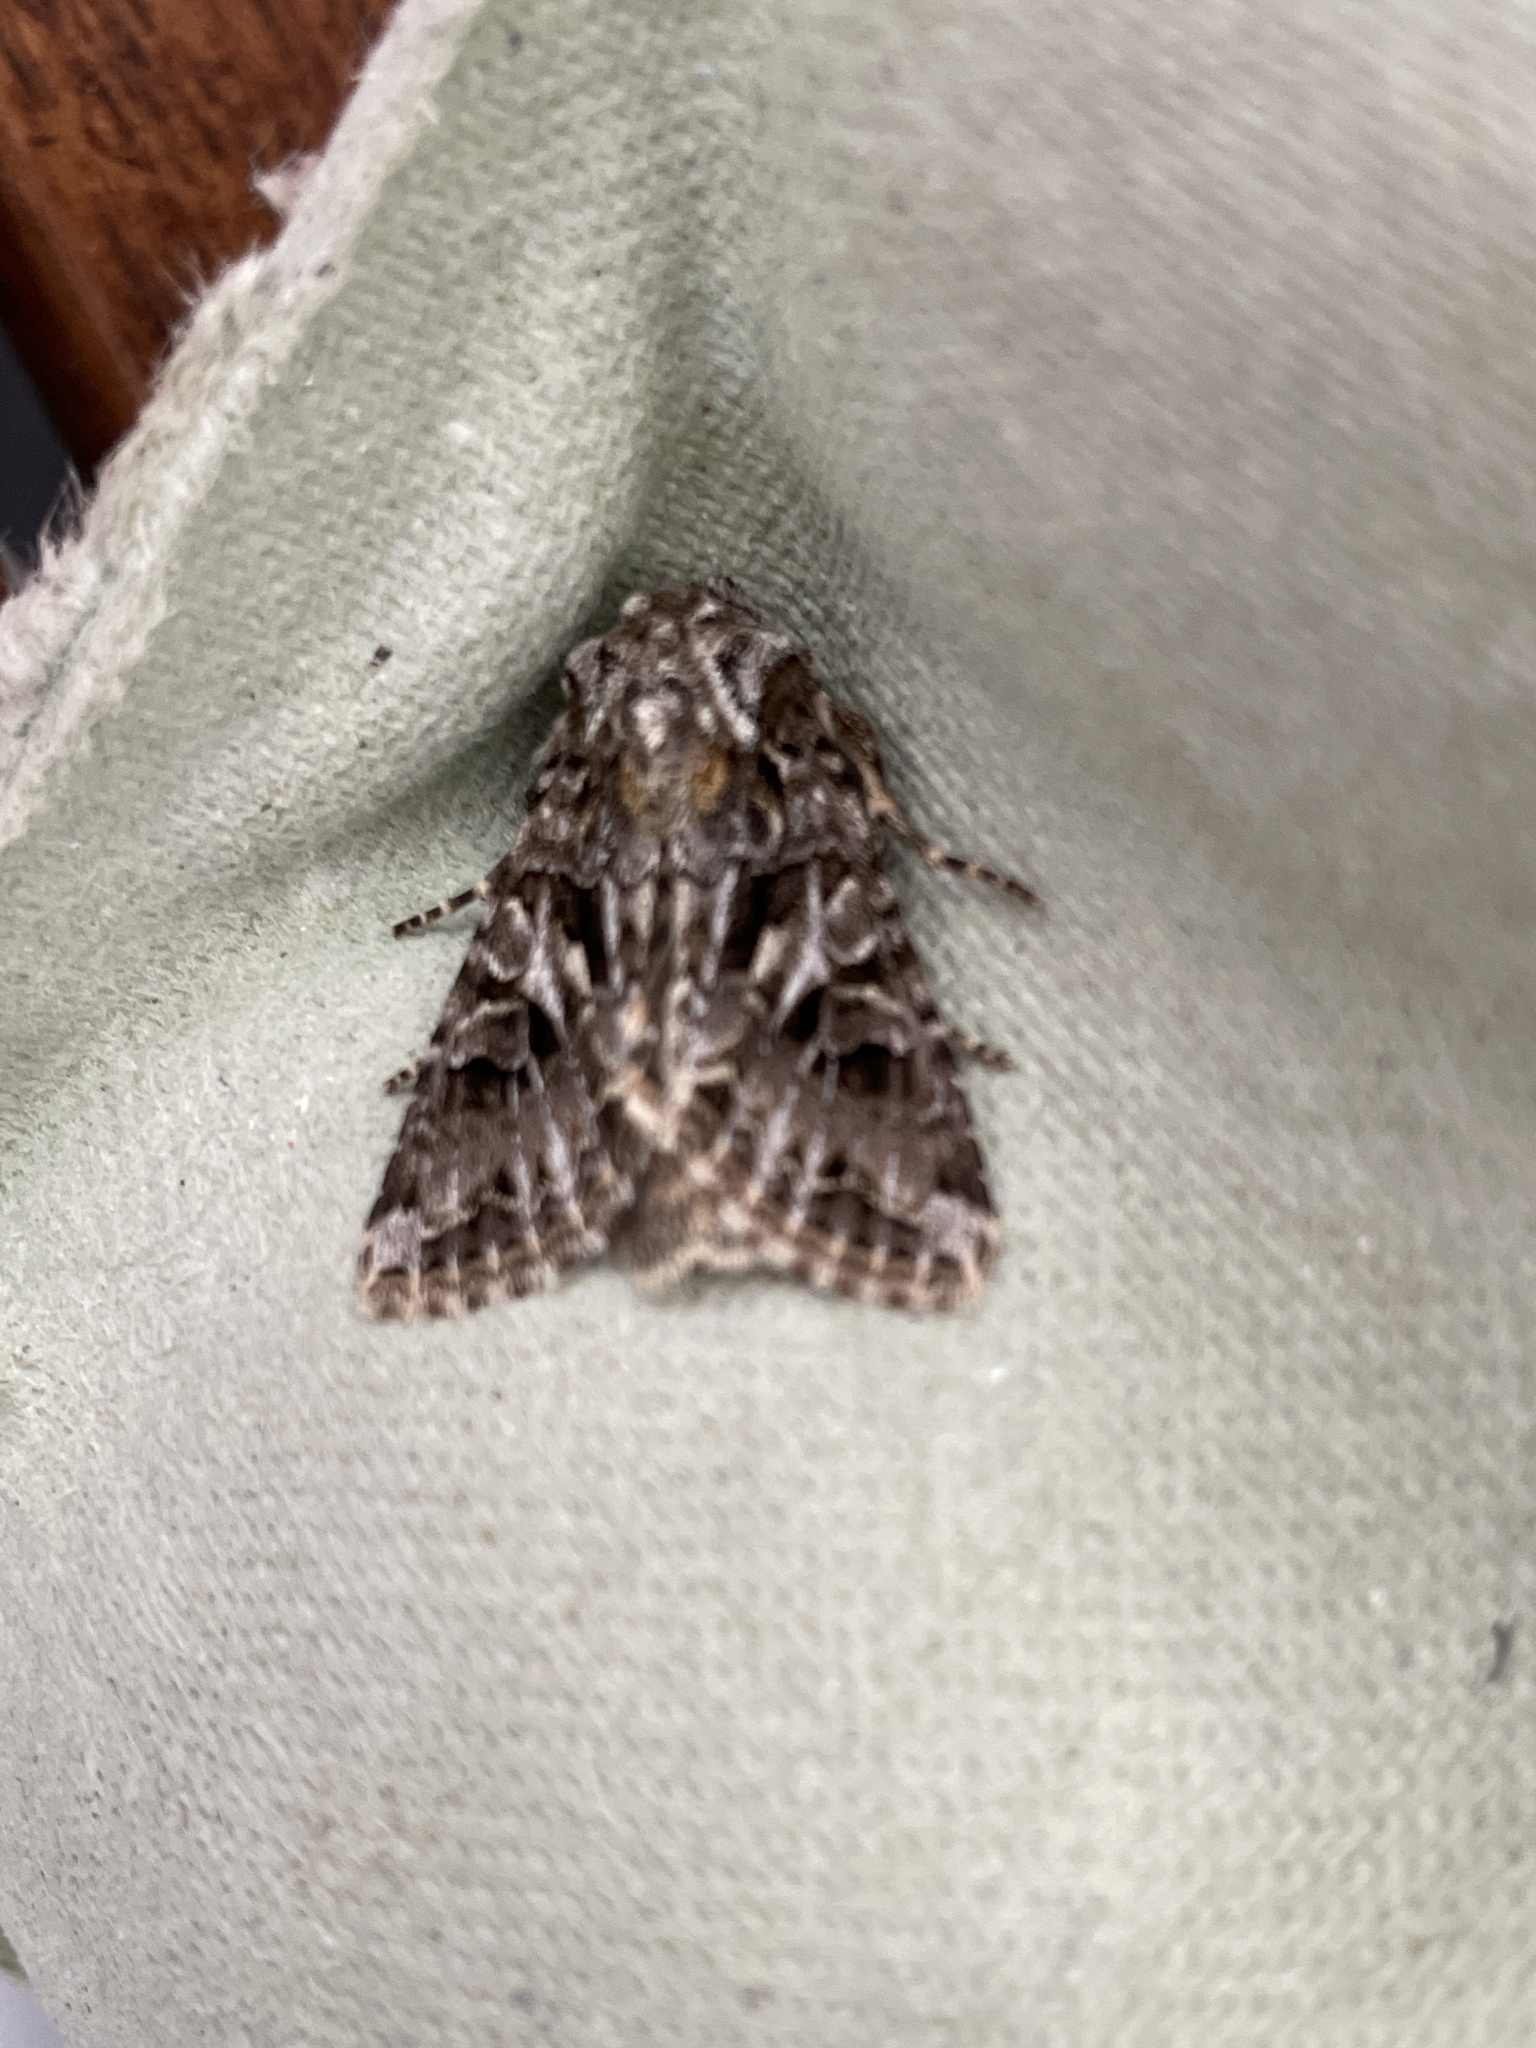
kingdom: Animalia
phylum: Arthropoda
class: Insecta
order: Lepidoptera
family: Noctuidae
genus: Hada
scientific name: Hada plebeja
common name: Shears
